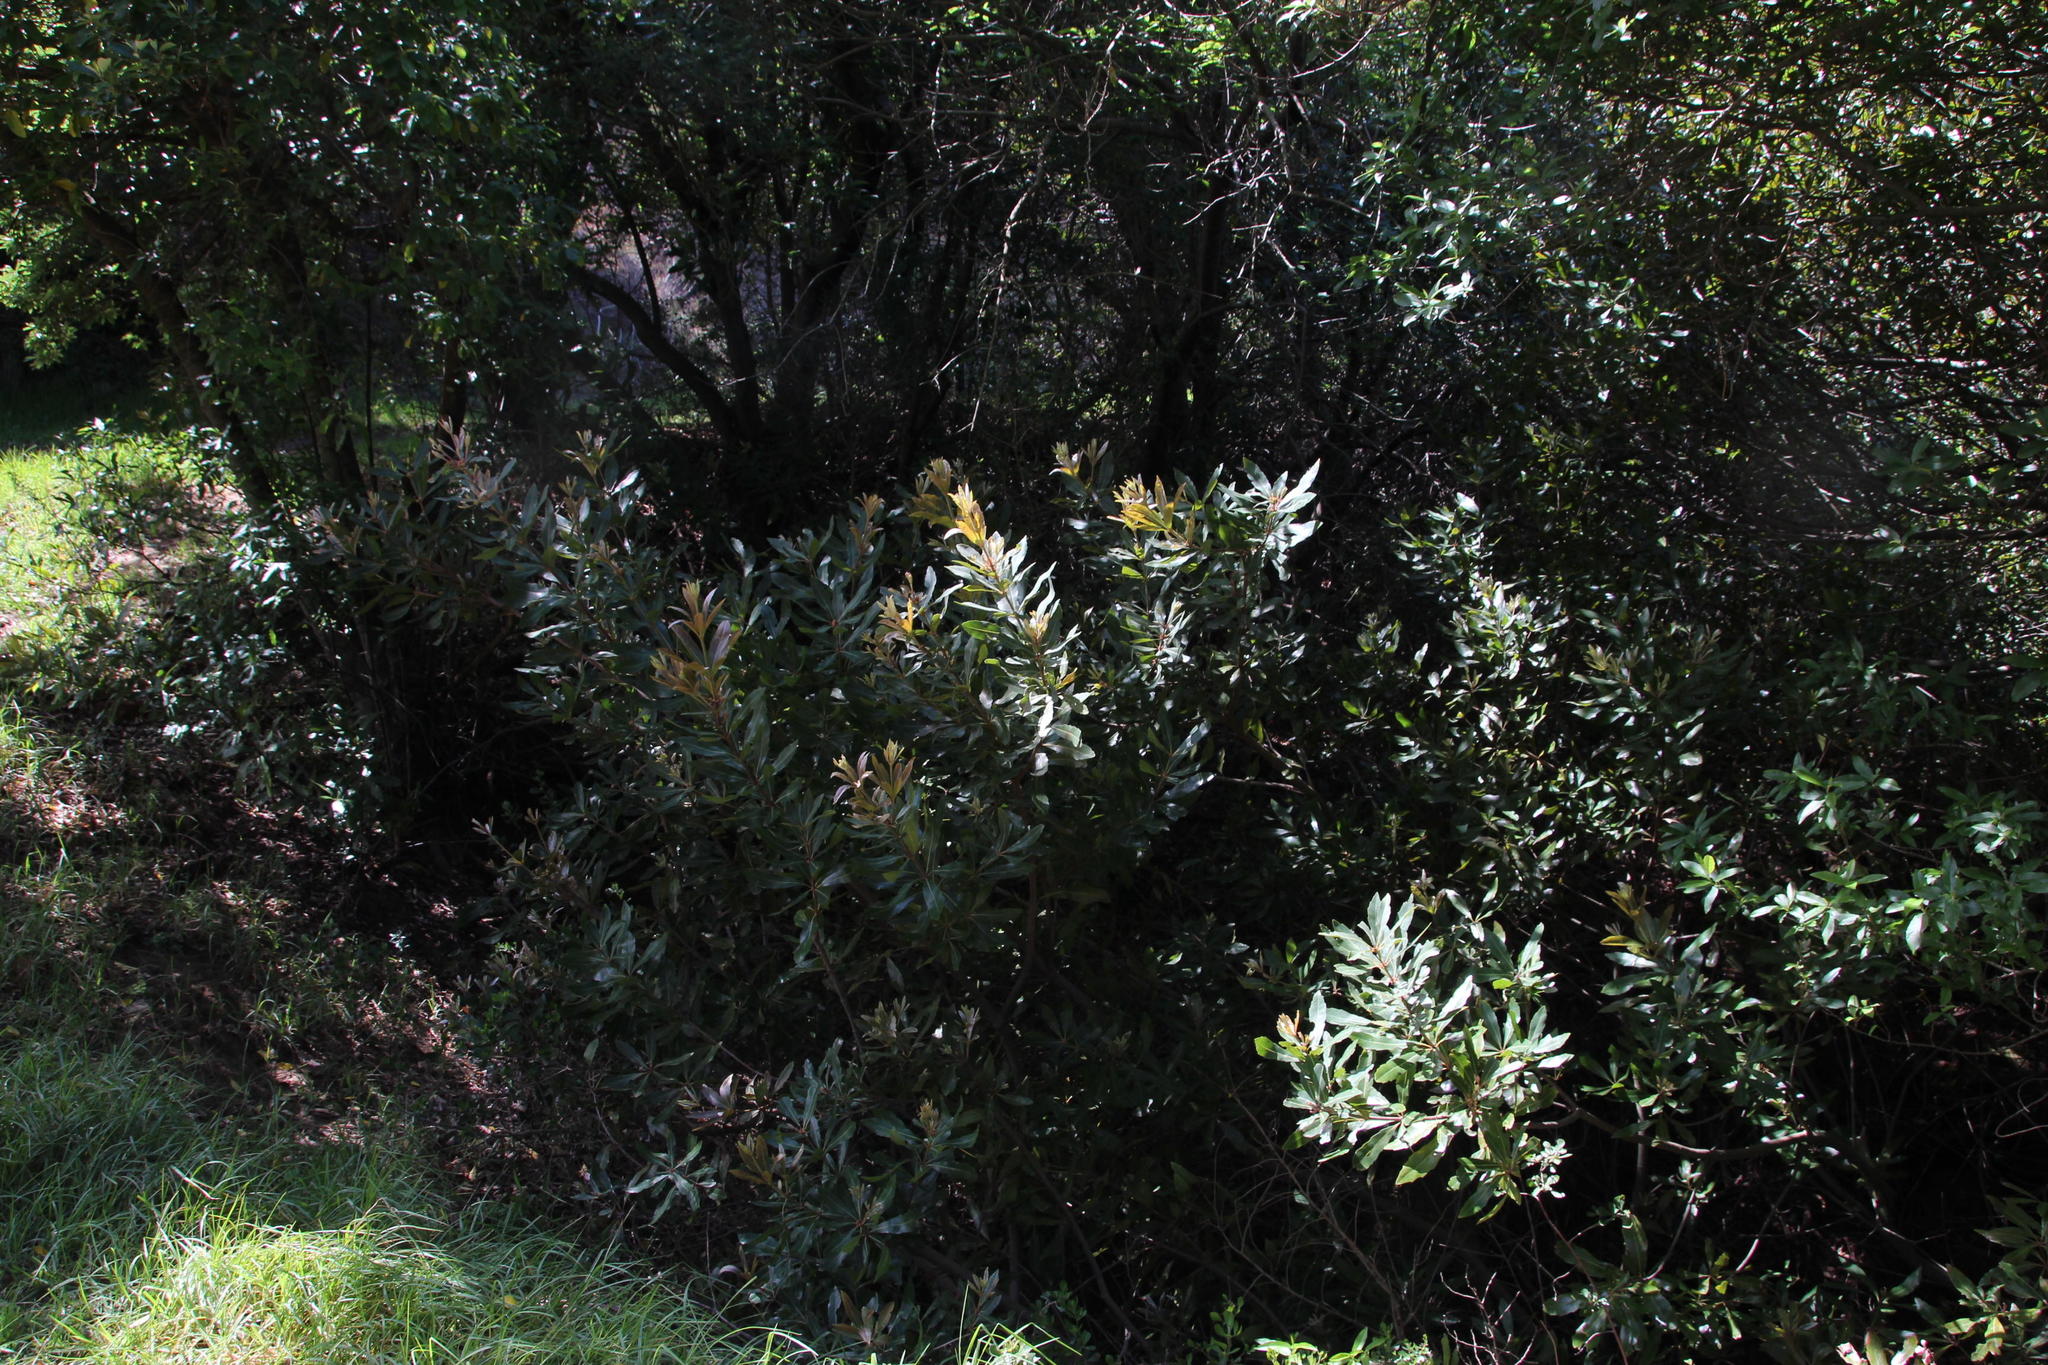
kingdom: Plantae
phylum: Tracheophyta
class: Magnoliopsida
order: Proteales
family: Proteaceae
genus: Brabejum
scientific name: Brabejum stellatifolium
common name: Wild almond
